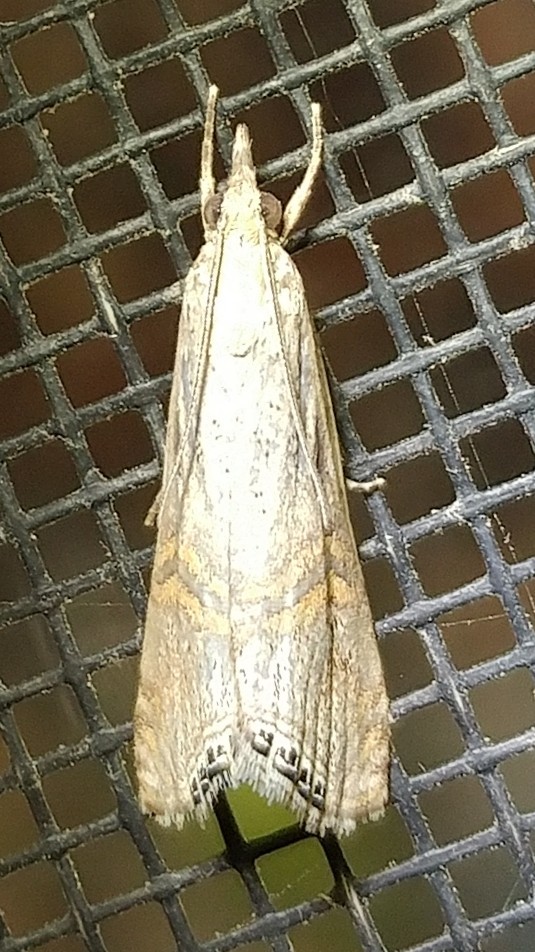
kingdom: Animalia
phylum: Arthropoda
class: Insecta
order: Lepidoptera
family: Crambidae
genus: Euchromius
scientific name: Euchromius ocellea
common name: Necklace veneer moth
